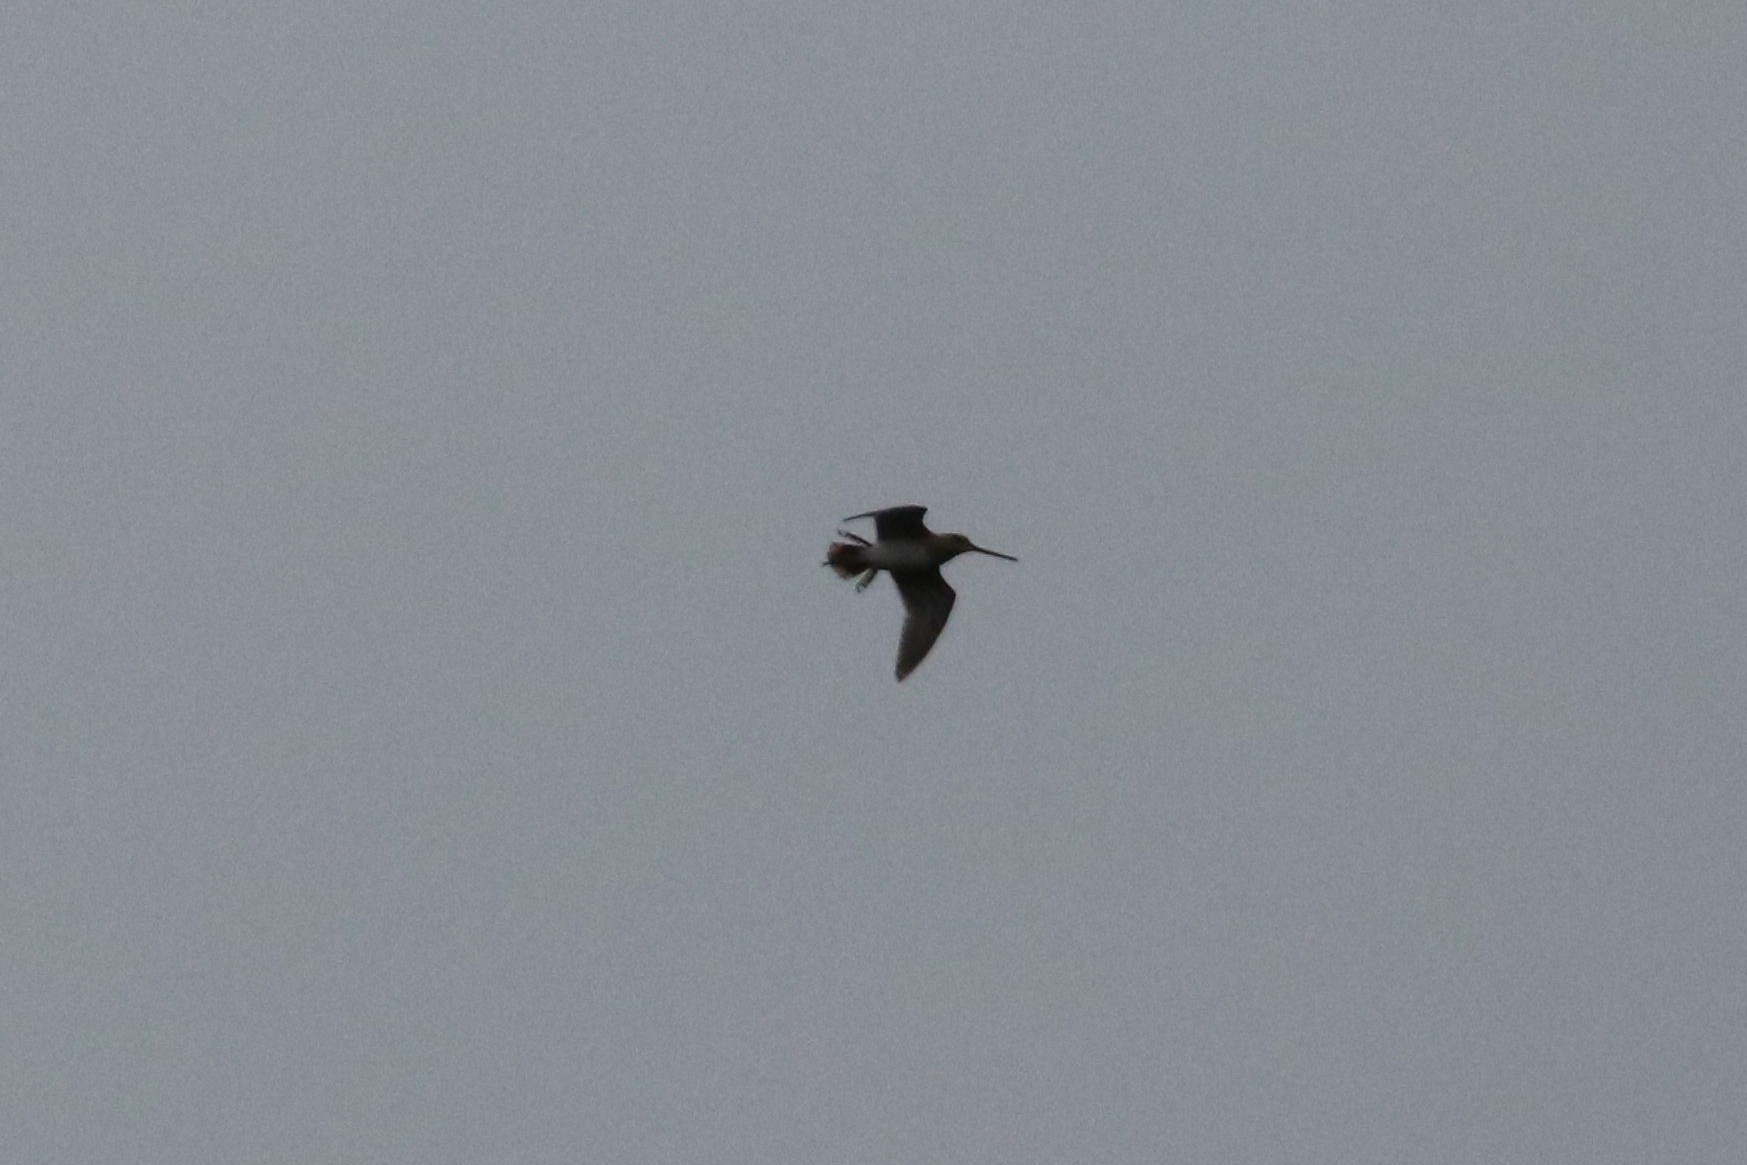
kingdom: Animalia
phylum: Chordata
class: Aves
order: Charadriiformes
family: Scolopacidae
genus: Gallinago
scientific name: Gallinago gallinago
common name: Common snipe
